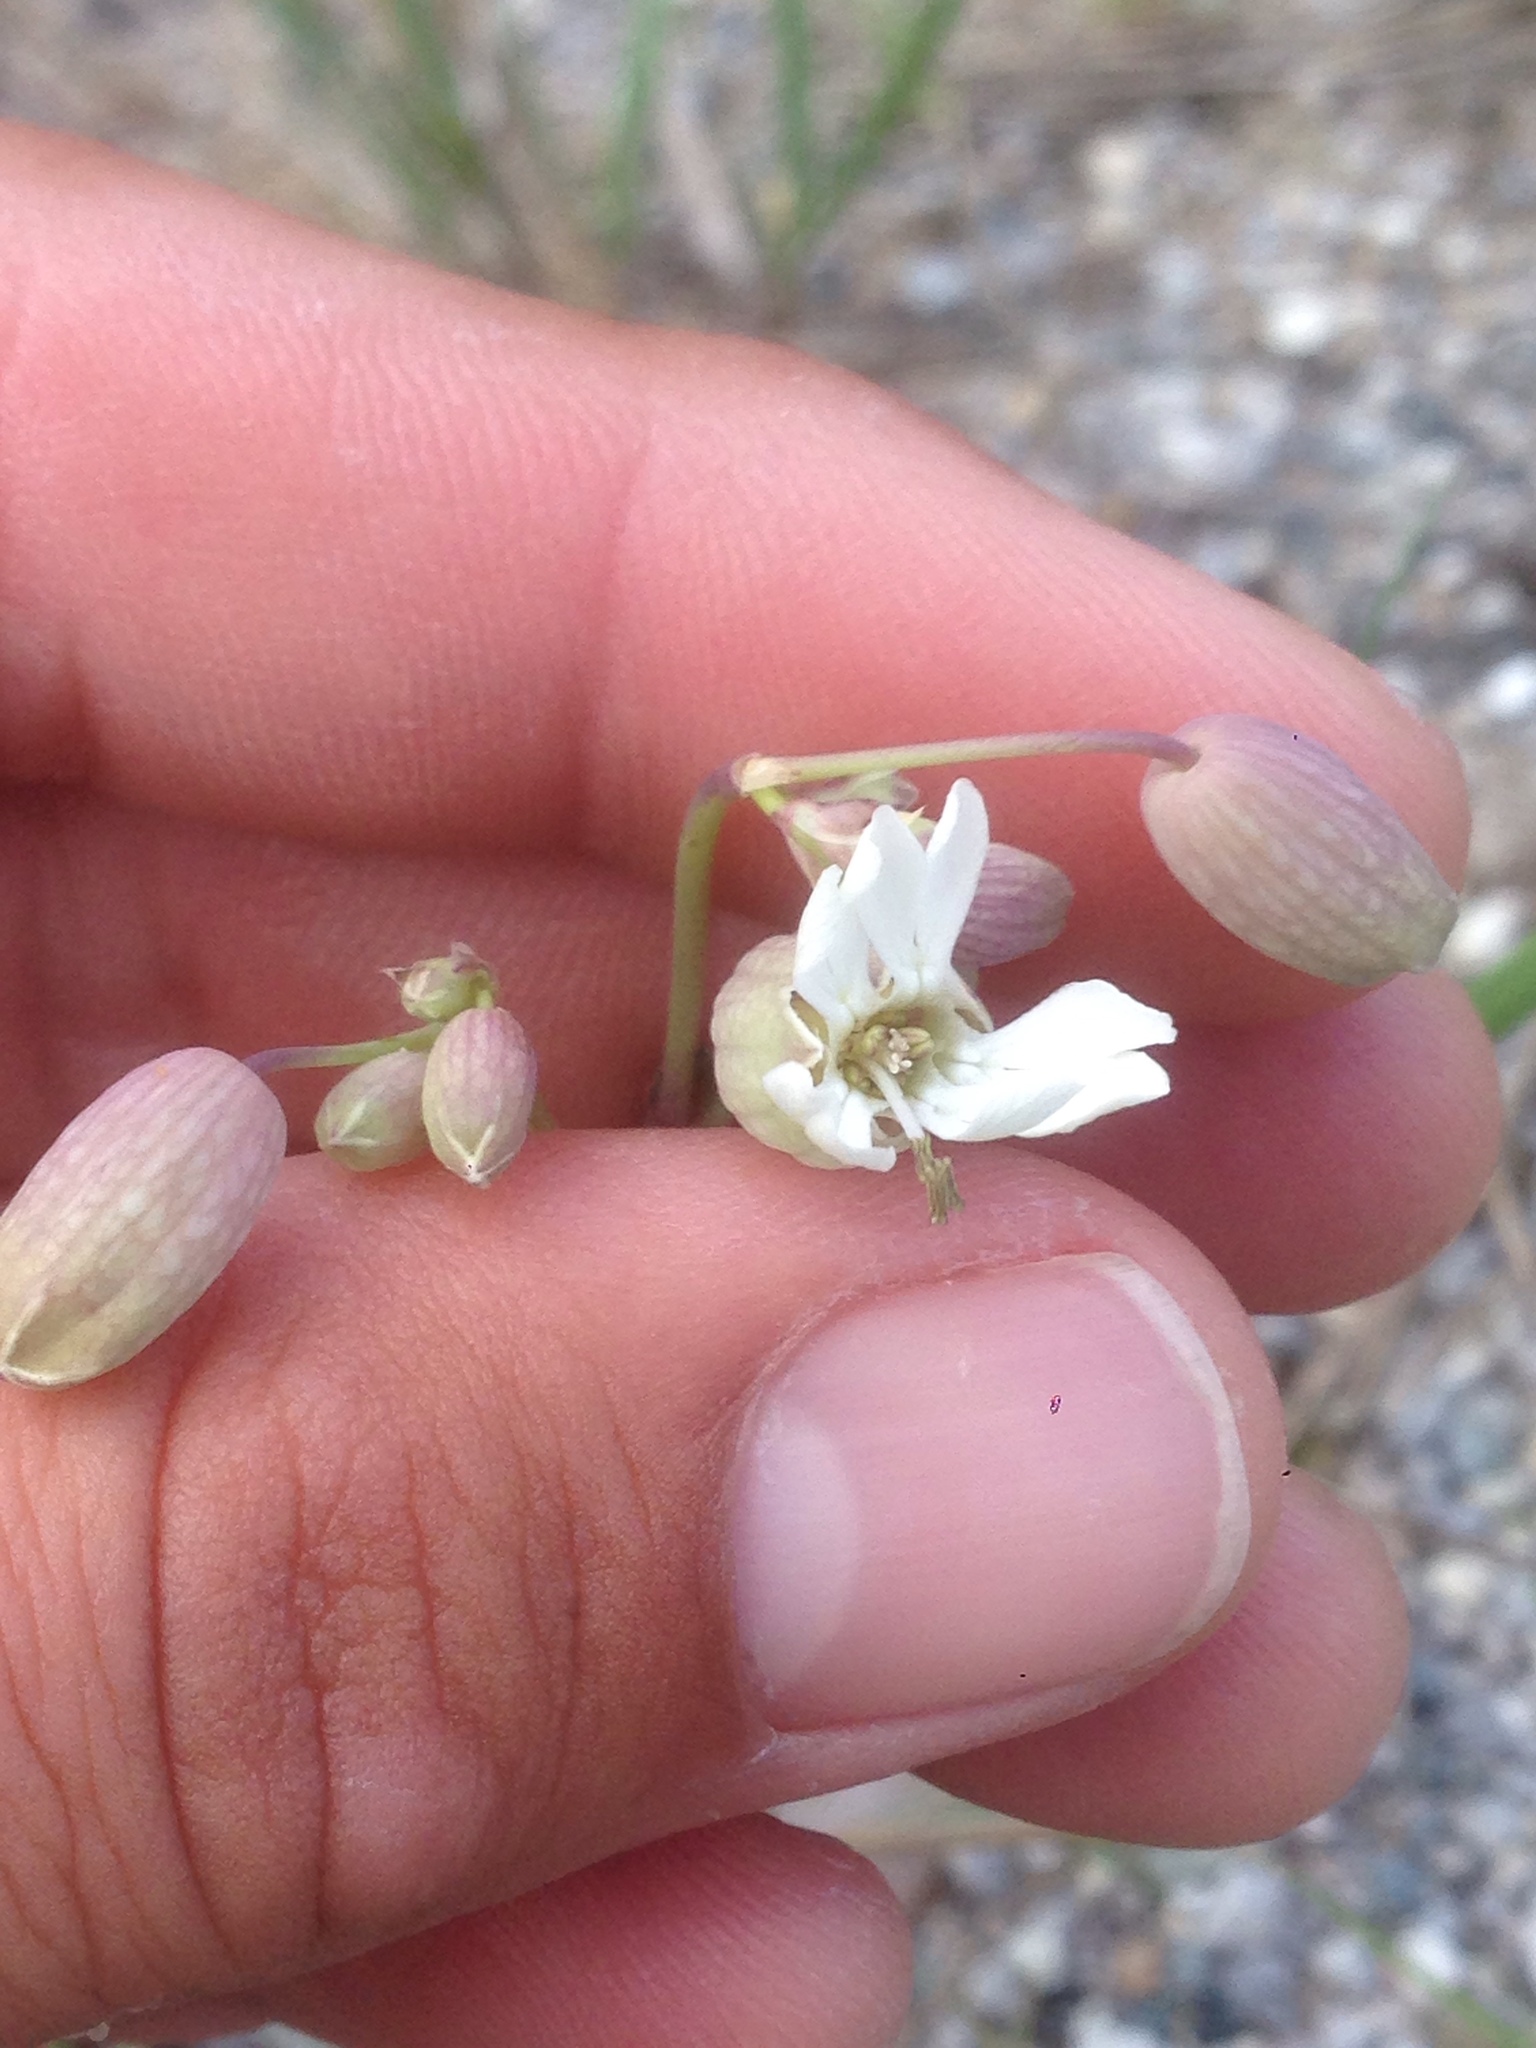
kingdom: Plantae
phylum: Tracheophyta
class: Magnoliopsida
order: Caryophyllales
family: Caryophyllaceae
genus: Silene
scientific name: Silene vulgaris
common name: Bladder campion
